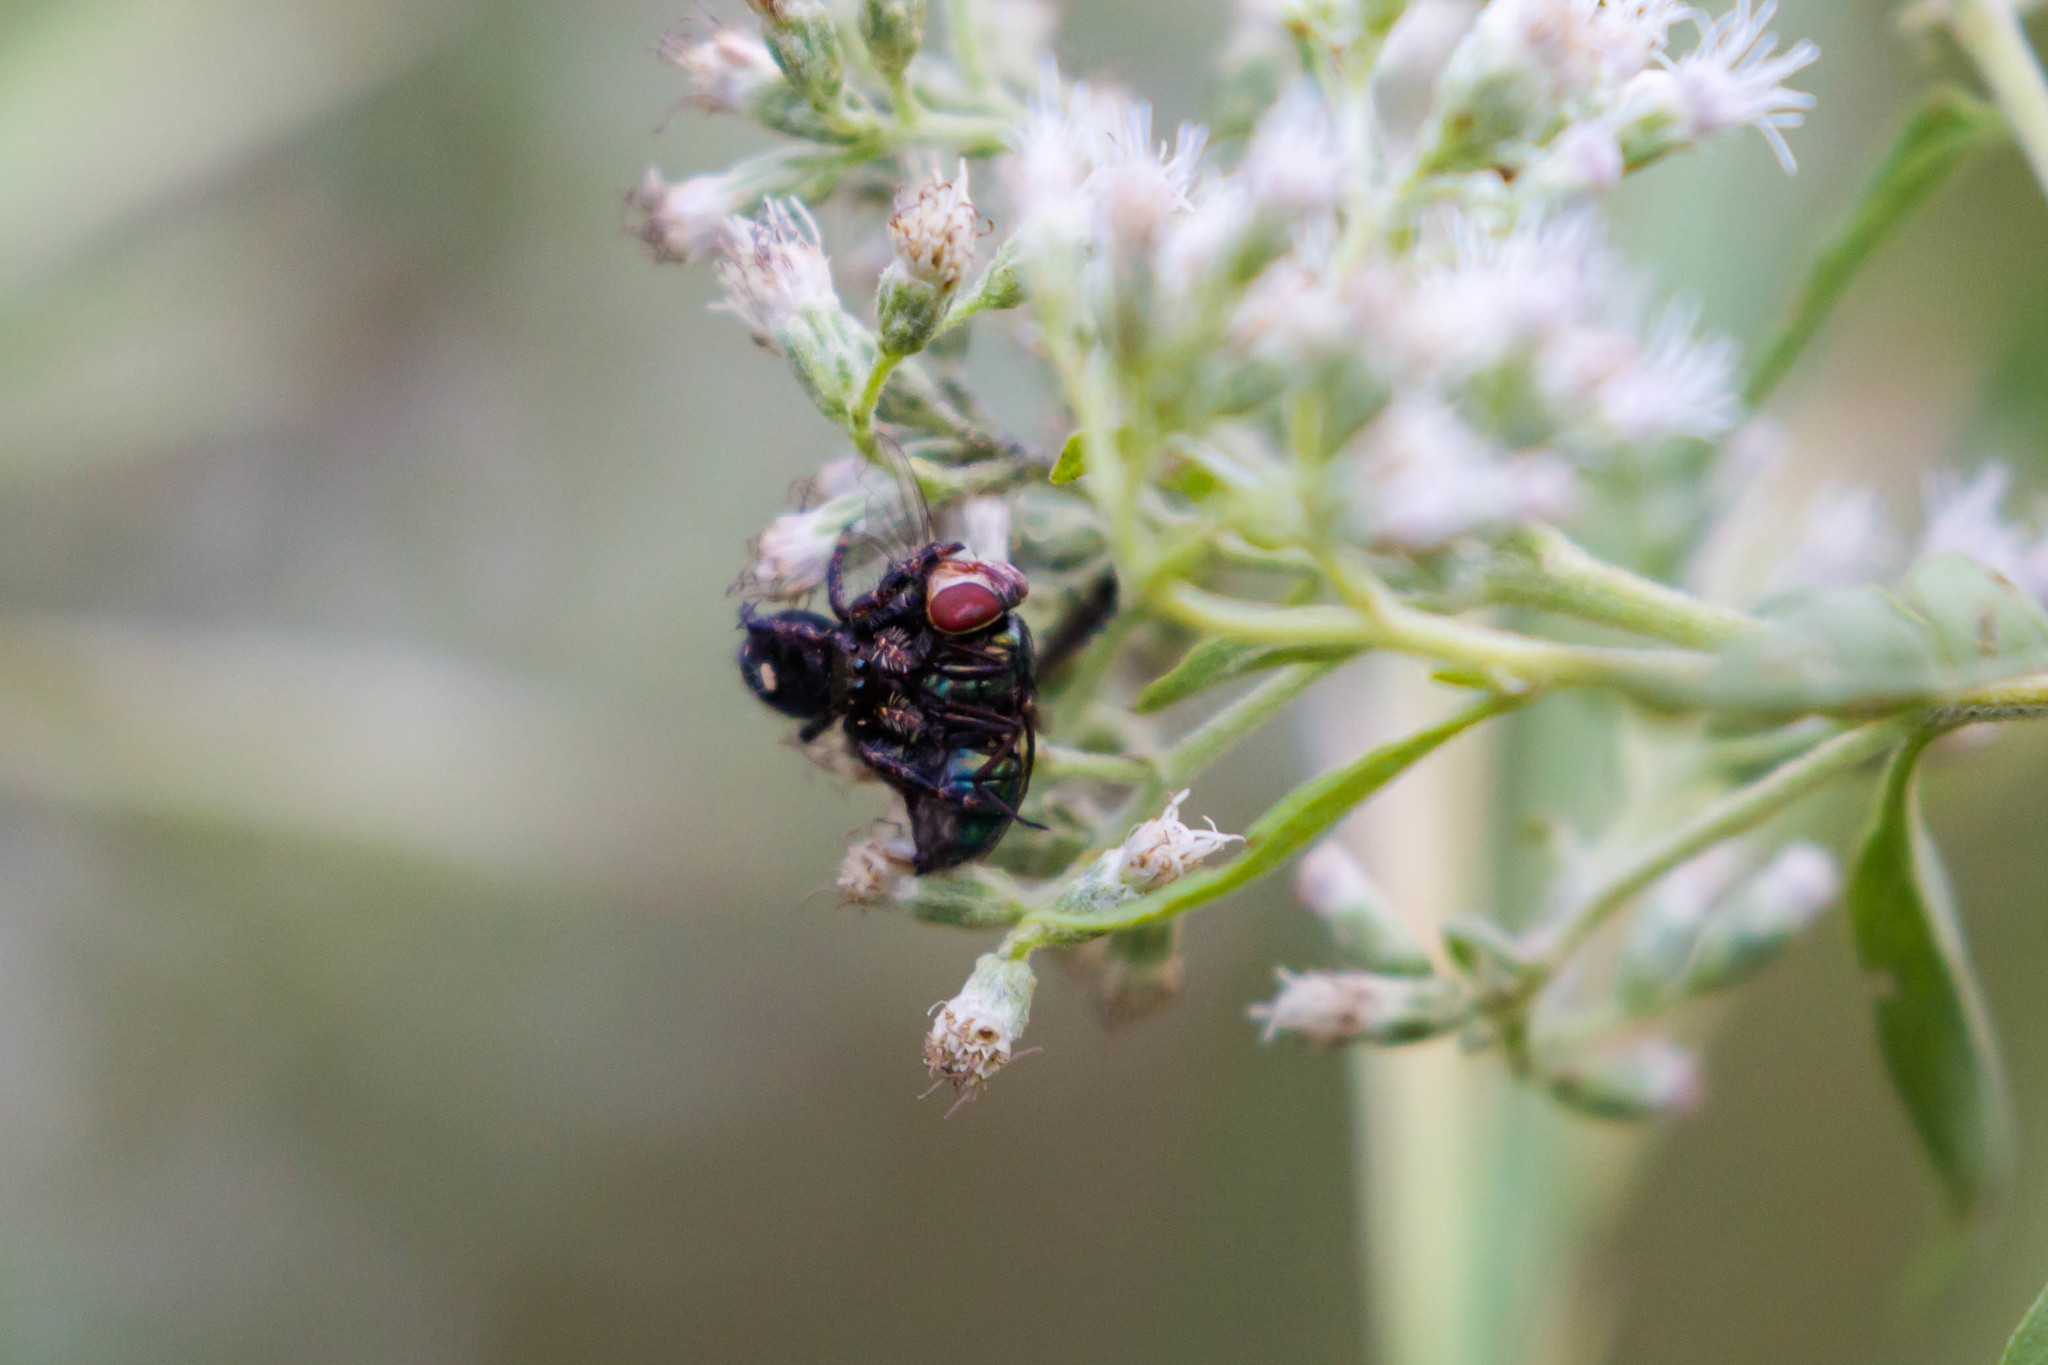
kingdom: Animalia
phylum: Arthropoda
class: Arachnida
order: Araneae
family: Salticidae
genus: Phidippus
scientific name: Phidippus audax
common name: Bold jumper
